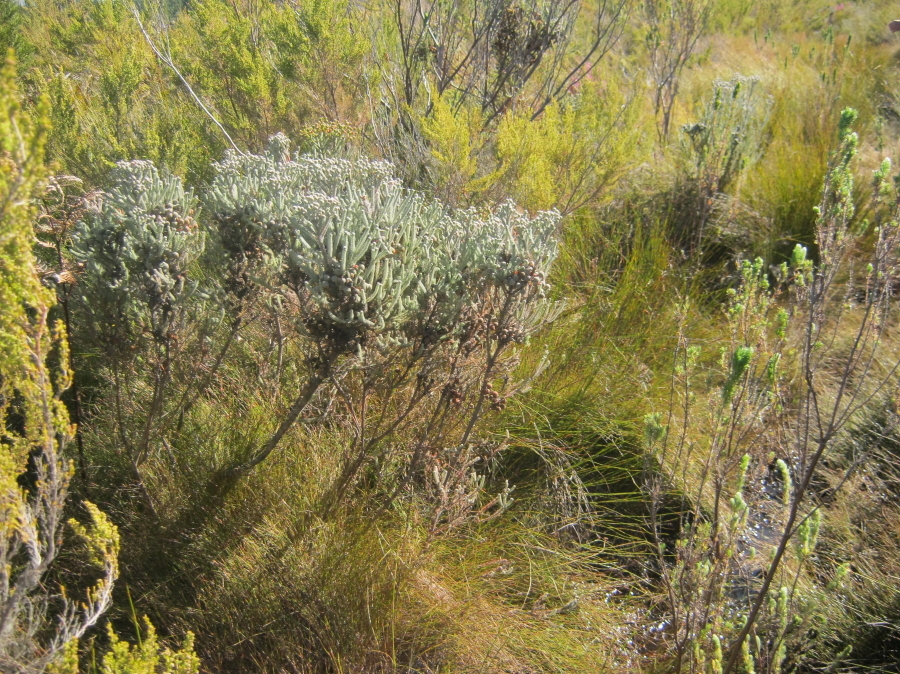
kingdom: Plantae
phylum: Tracheophyta
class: Magnoliopsida
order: Bruniales
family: Bruniaceae
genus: Berzelia
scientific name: Berzelia burchellii
